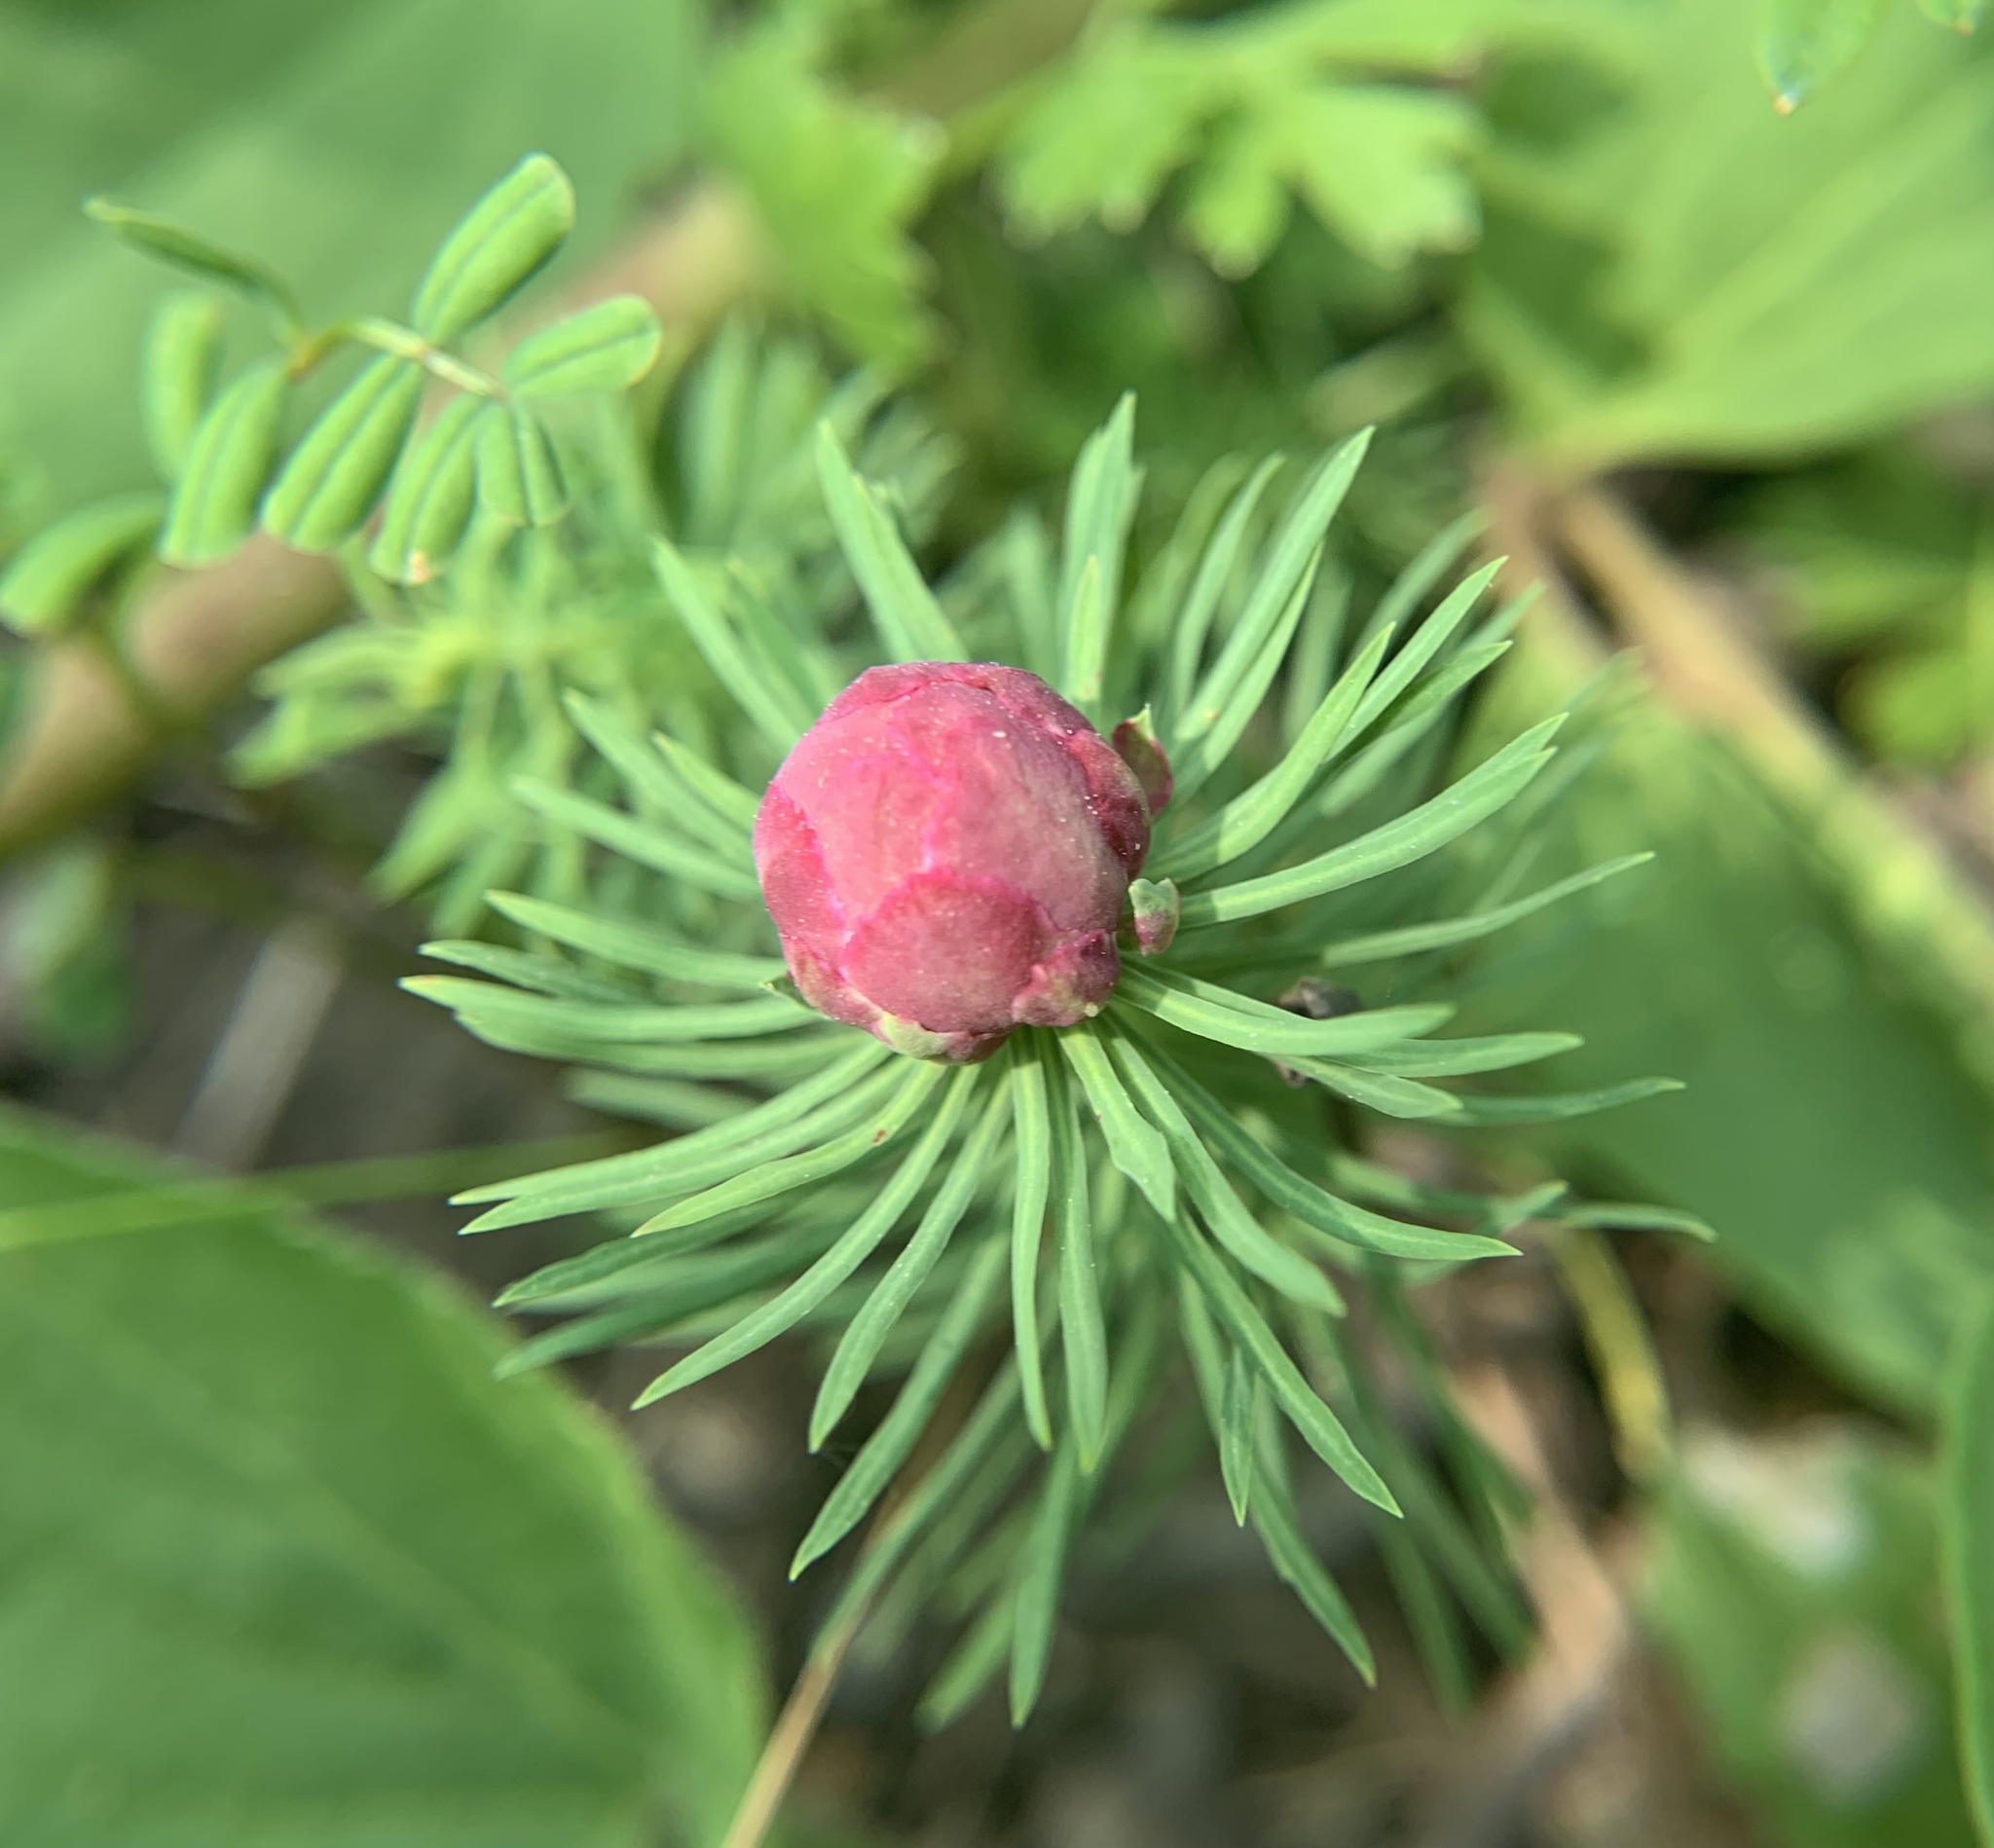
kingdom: Animalia
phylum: Arthropoda
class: Insecta
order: Diptera
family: Cecidomyiidae
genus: Spurgia
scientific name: Spurgia euphorbiae
